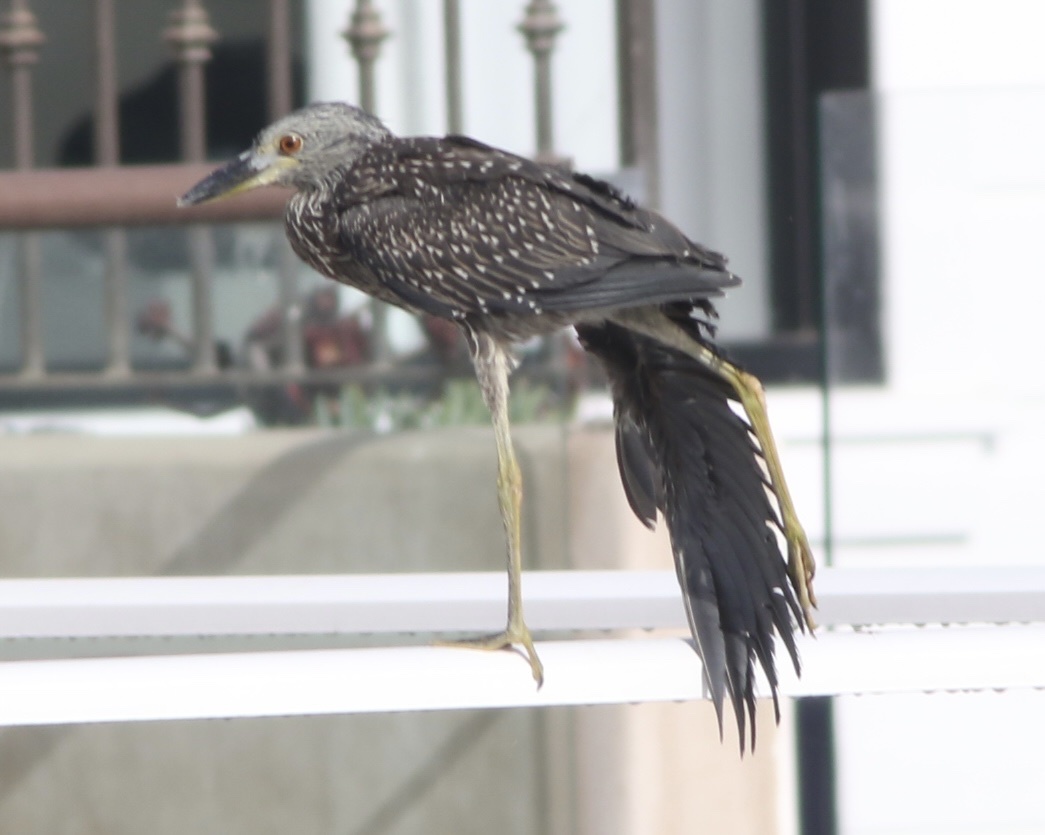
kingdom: Animalia
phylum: Chordata
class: Aves
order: Pelecaniformes
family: Ardeidae
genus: Nyctanassa
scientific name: Nyctanassa violacea
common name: Yellow-crowned night heron
